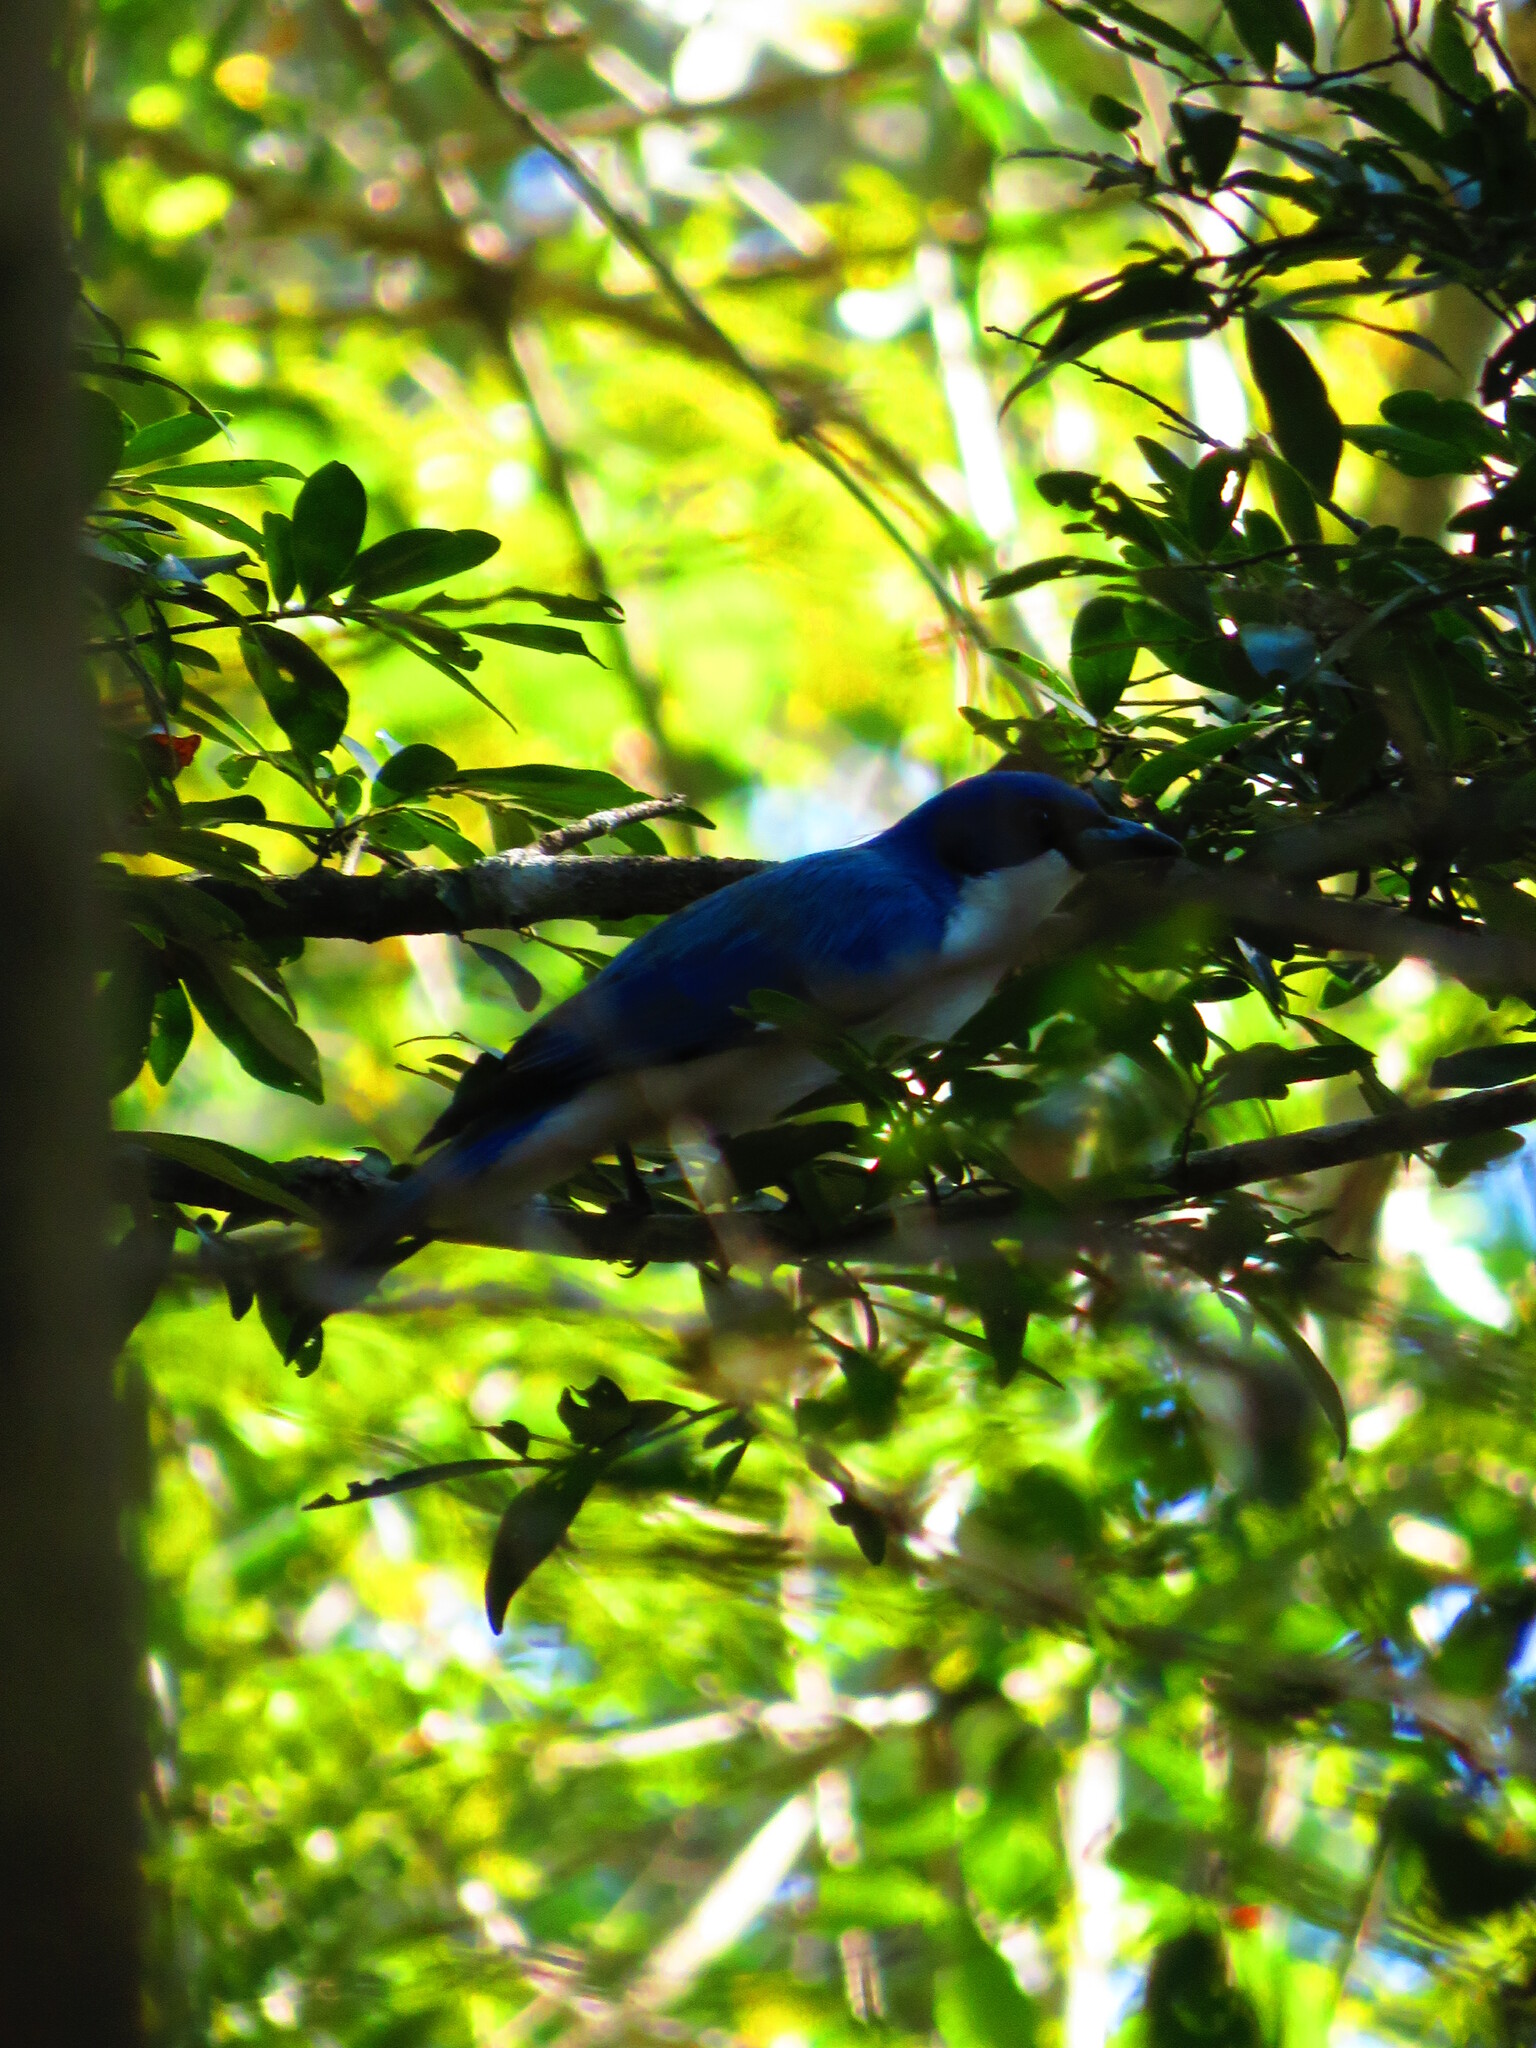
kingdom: Animalia
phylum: Chordata
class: Aves
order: Passeriformes
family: Vangidae
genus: Cyanolanius
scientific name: Cyanolanius madagascarinus
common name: Blue vanga
